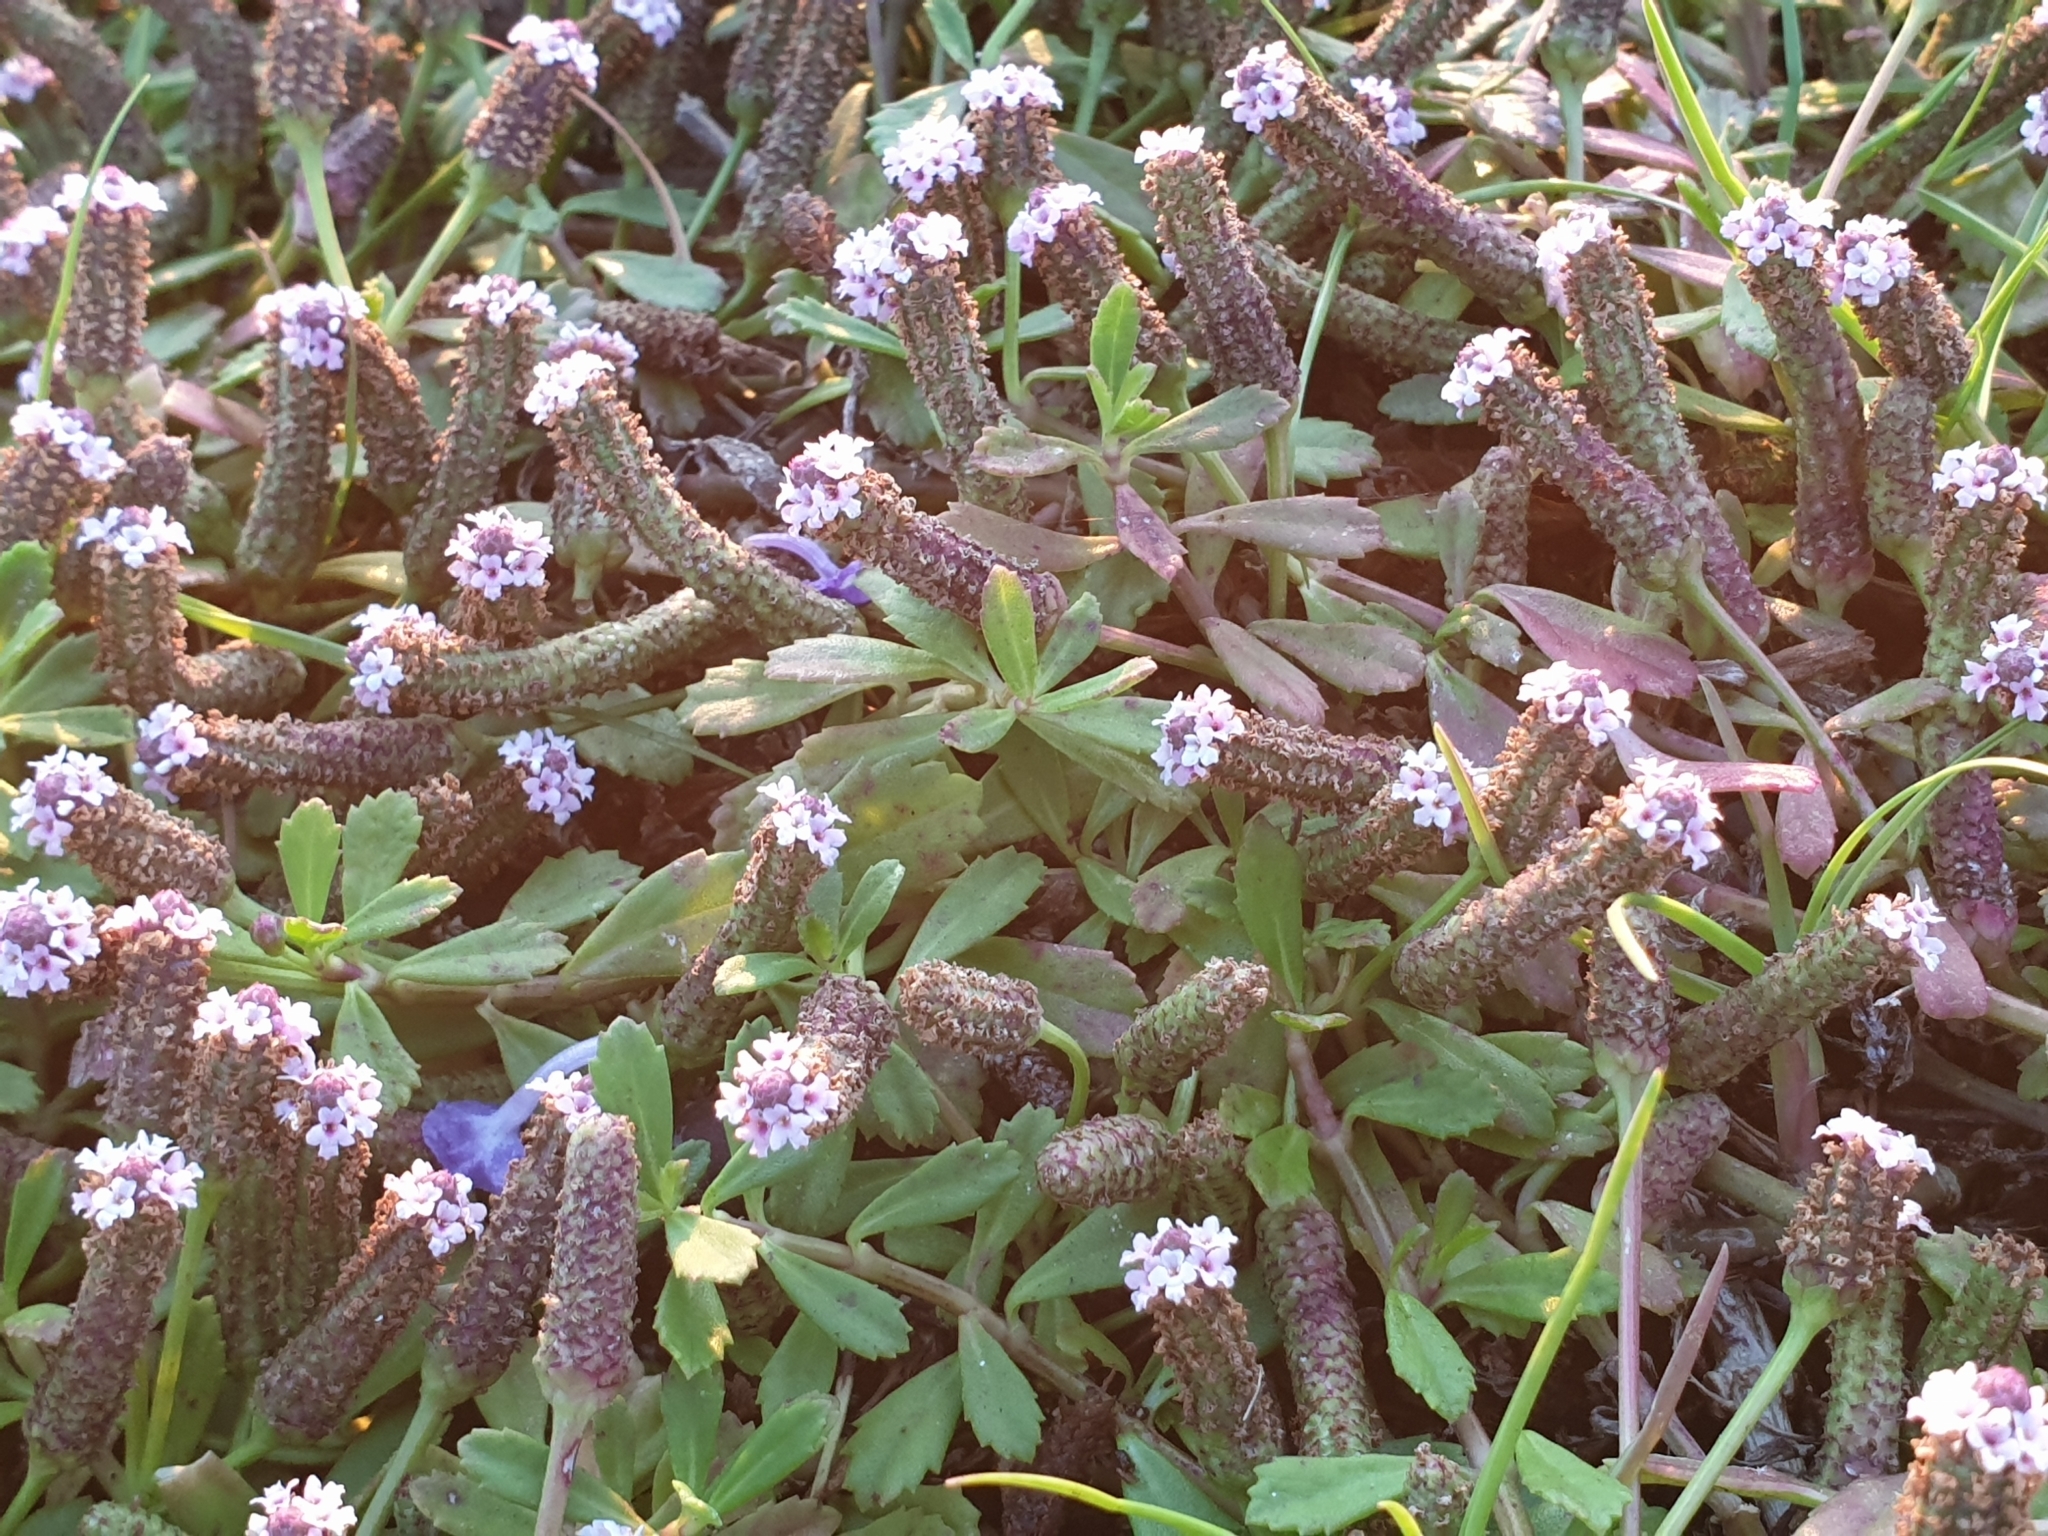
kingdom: Plantae
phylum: Tracheophyta
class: Magnoliopsida
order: Lamiales
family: Verbenaceae
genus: Phyla
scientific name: Phyla nodiflora
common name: Frogfruit
